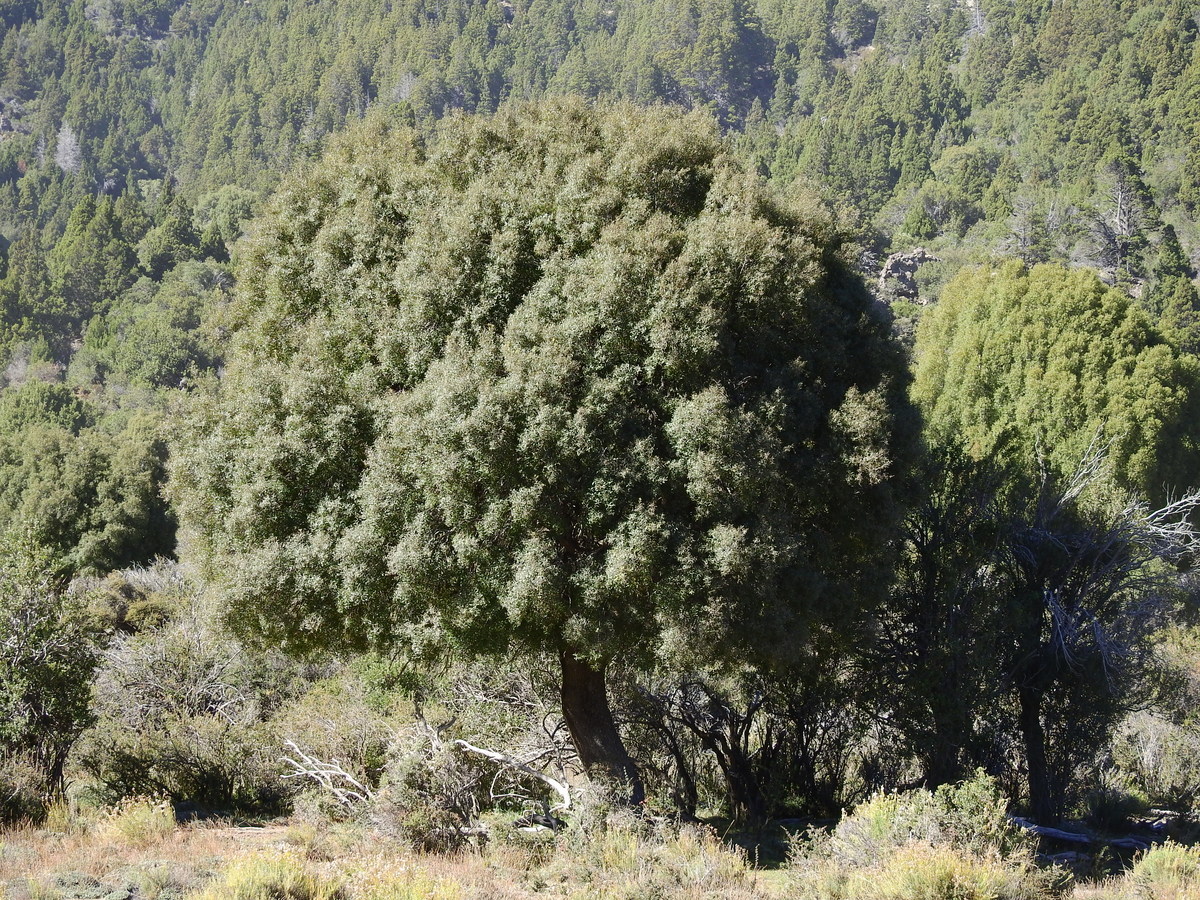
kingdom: Plantae
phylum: Tracheophyta
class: Magnoliopsida
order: Celastrales
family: Celastraceae
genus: Maytenus
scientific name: Maytenus boaria
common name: Mayten
